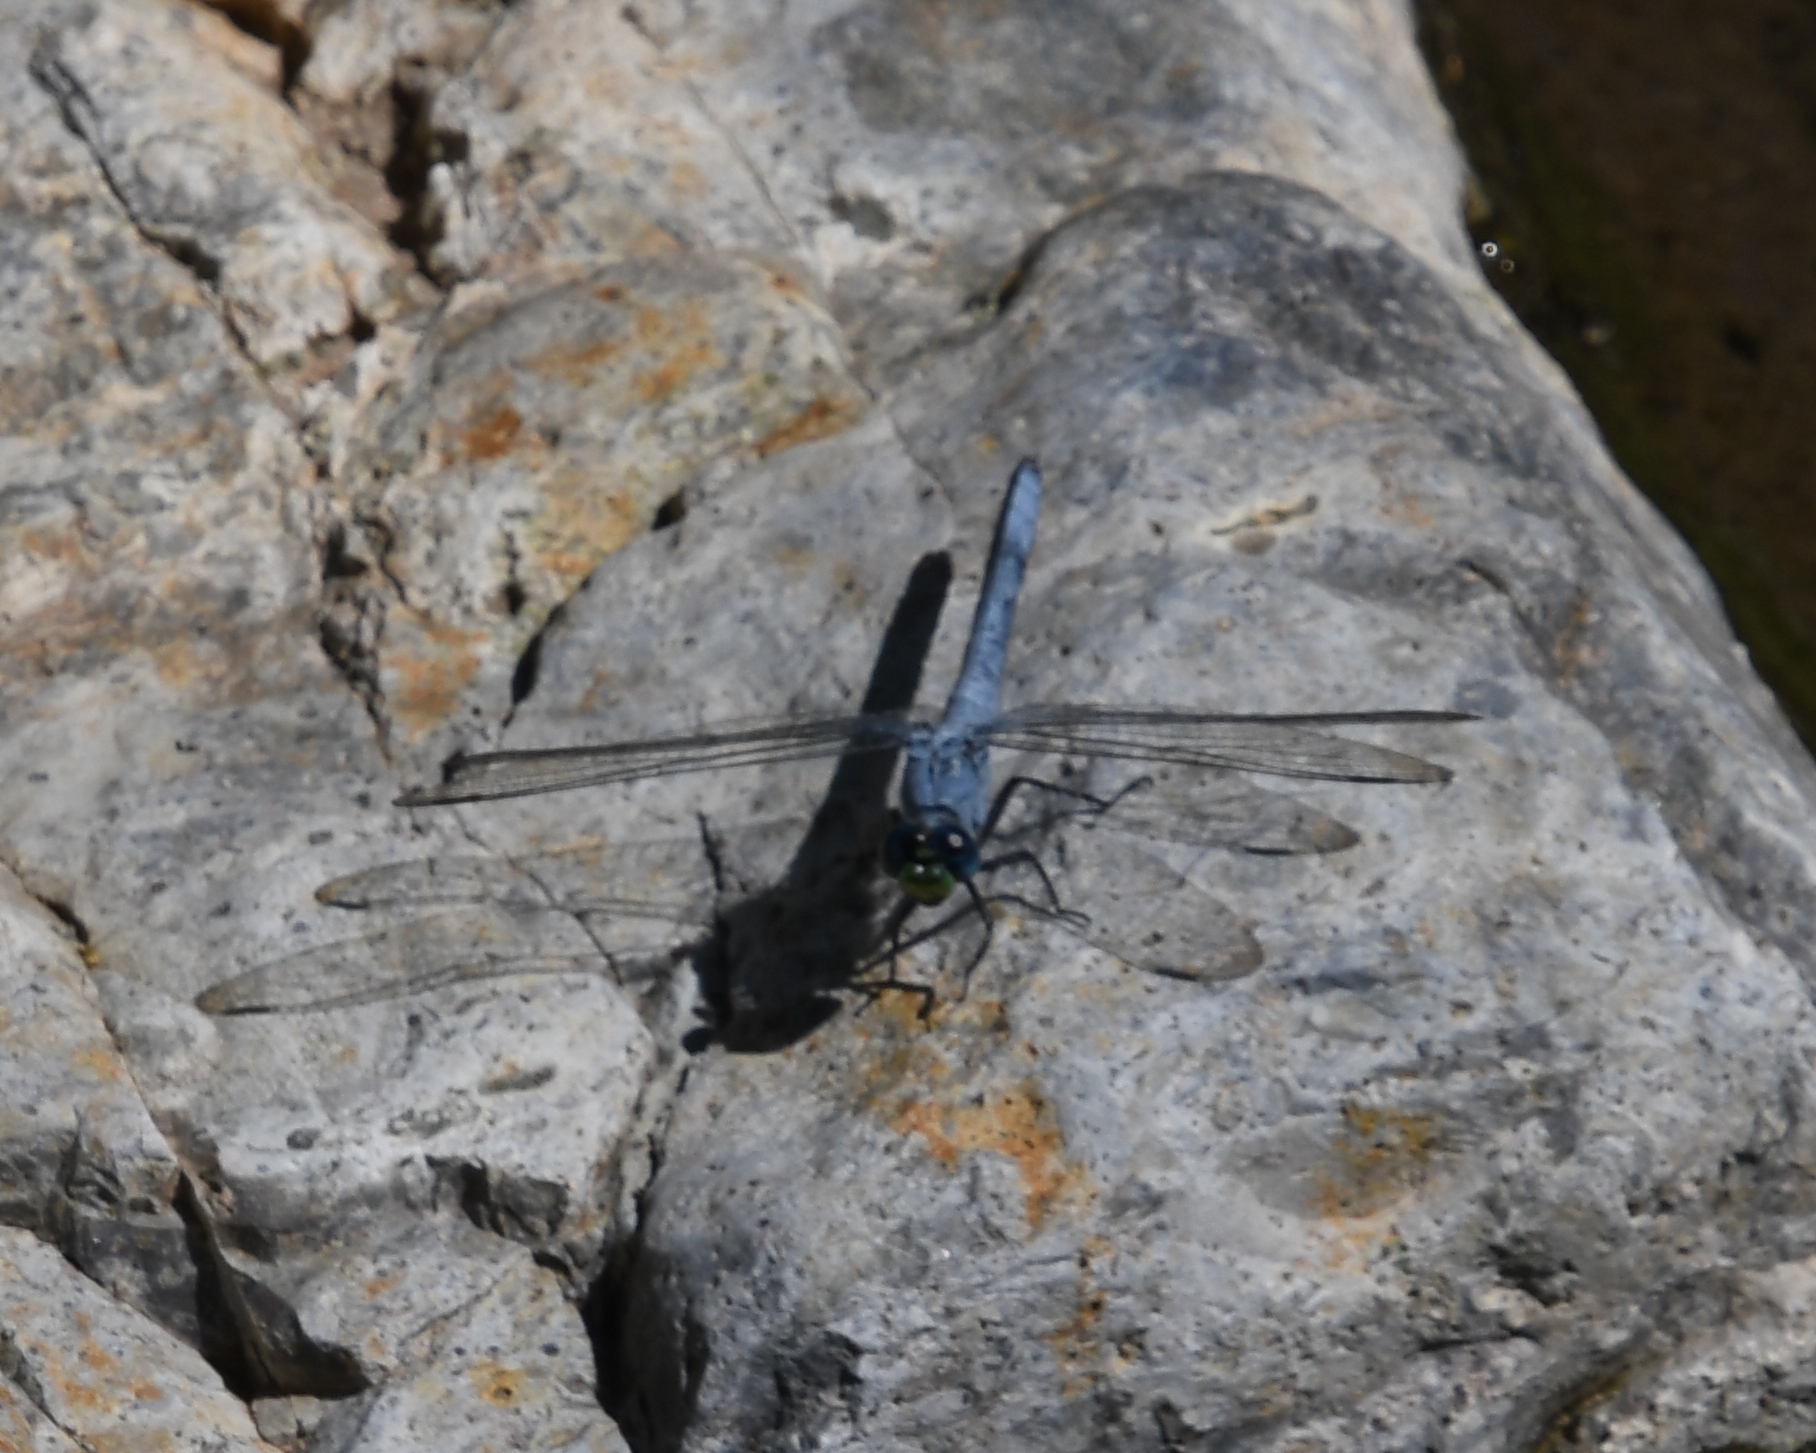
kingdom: Animalia
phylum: Arthropoda
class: Insecta
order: Odonata
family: Libellulidae
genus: Erythemis
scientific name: Erythemis collocata
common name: Western pondhawk
